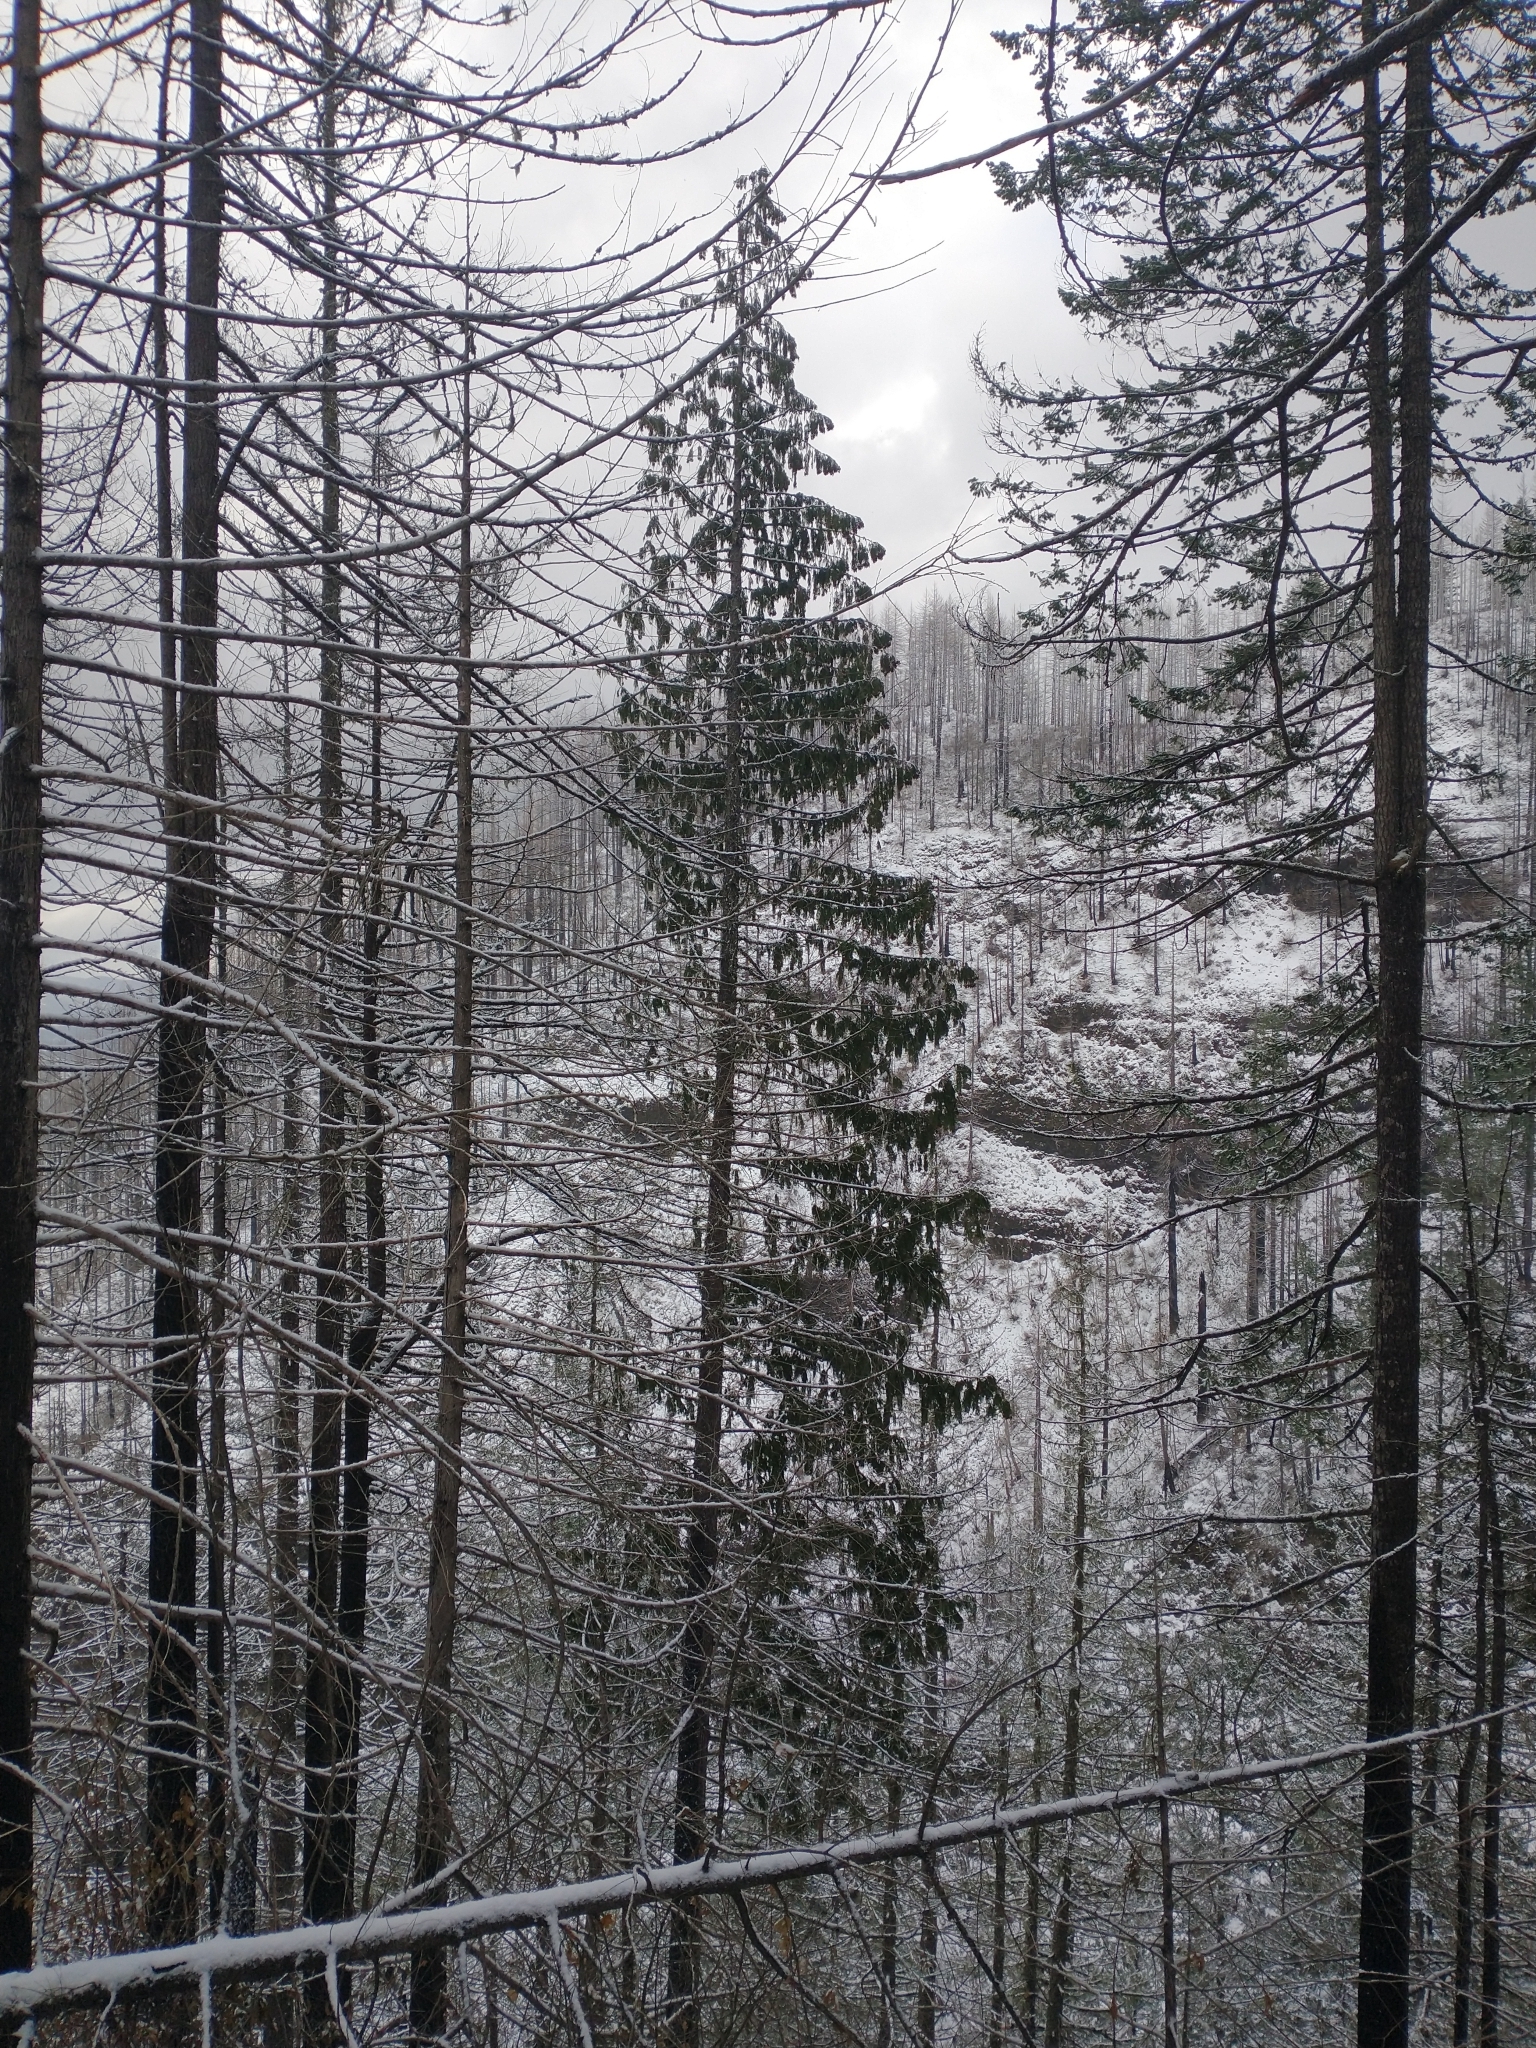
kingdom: Plantae
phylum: Tracheophyta
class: Pinopsida
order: Pinales
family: Cupressaceae
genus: Thuja
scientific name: Thuja plicata
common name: Western red-cedar
